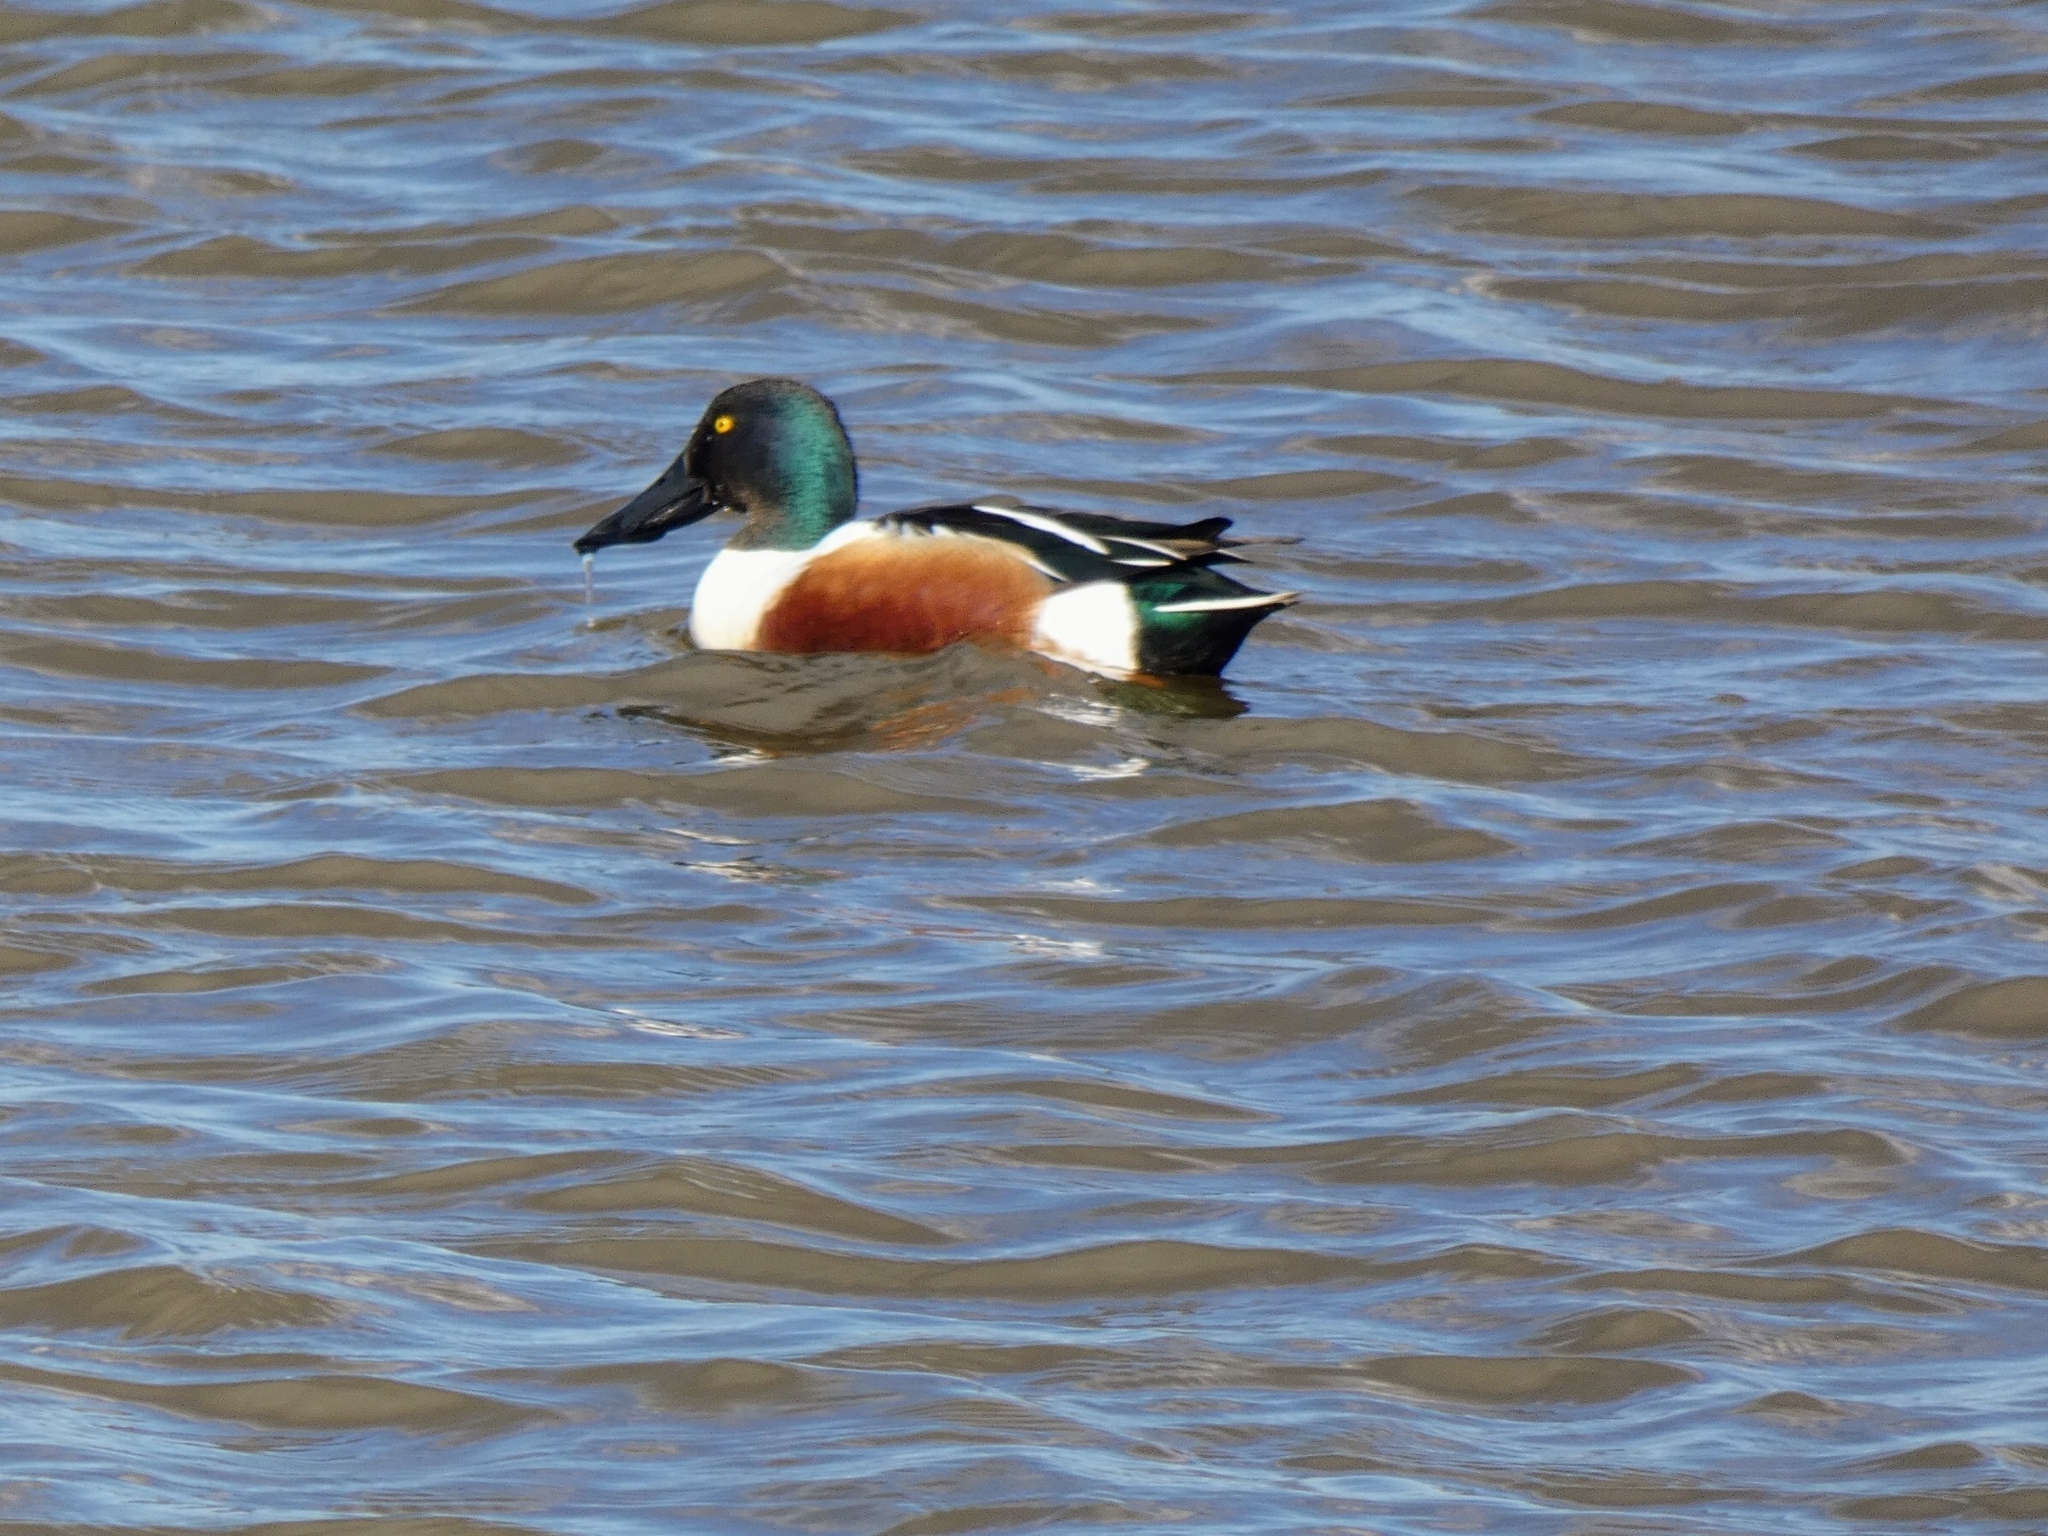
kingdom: Animalia
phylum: Chordata
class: Aves
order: Anseriformes
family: Anatidae
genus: Spatula
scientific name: Spatula clypeata
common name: Northern shoveler
